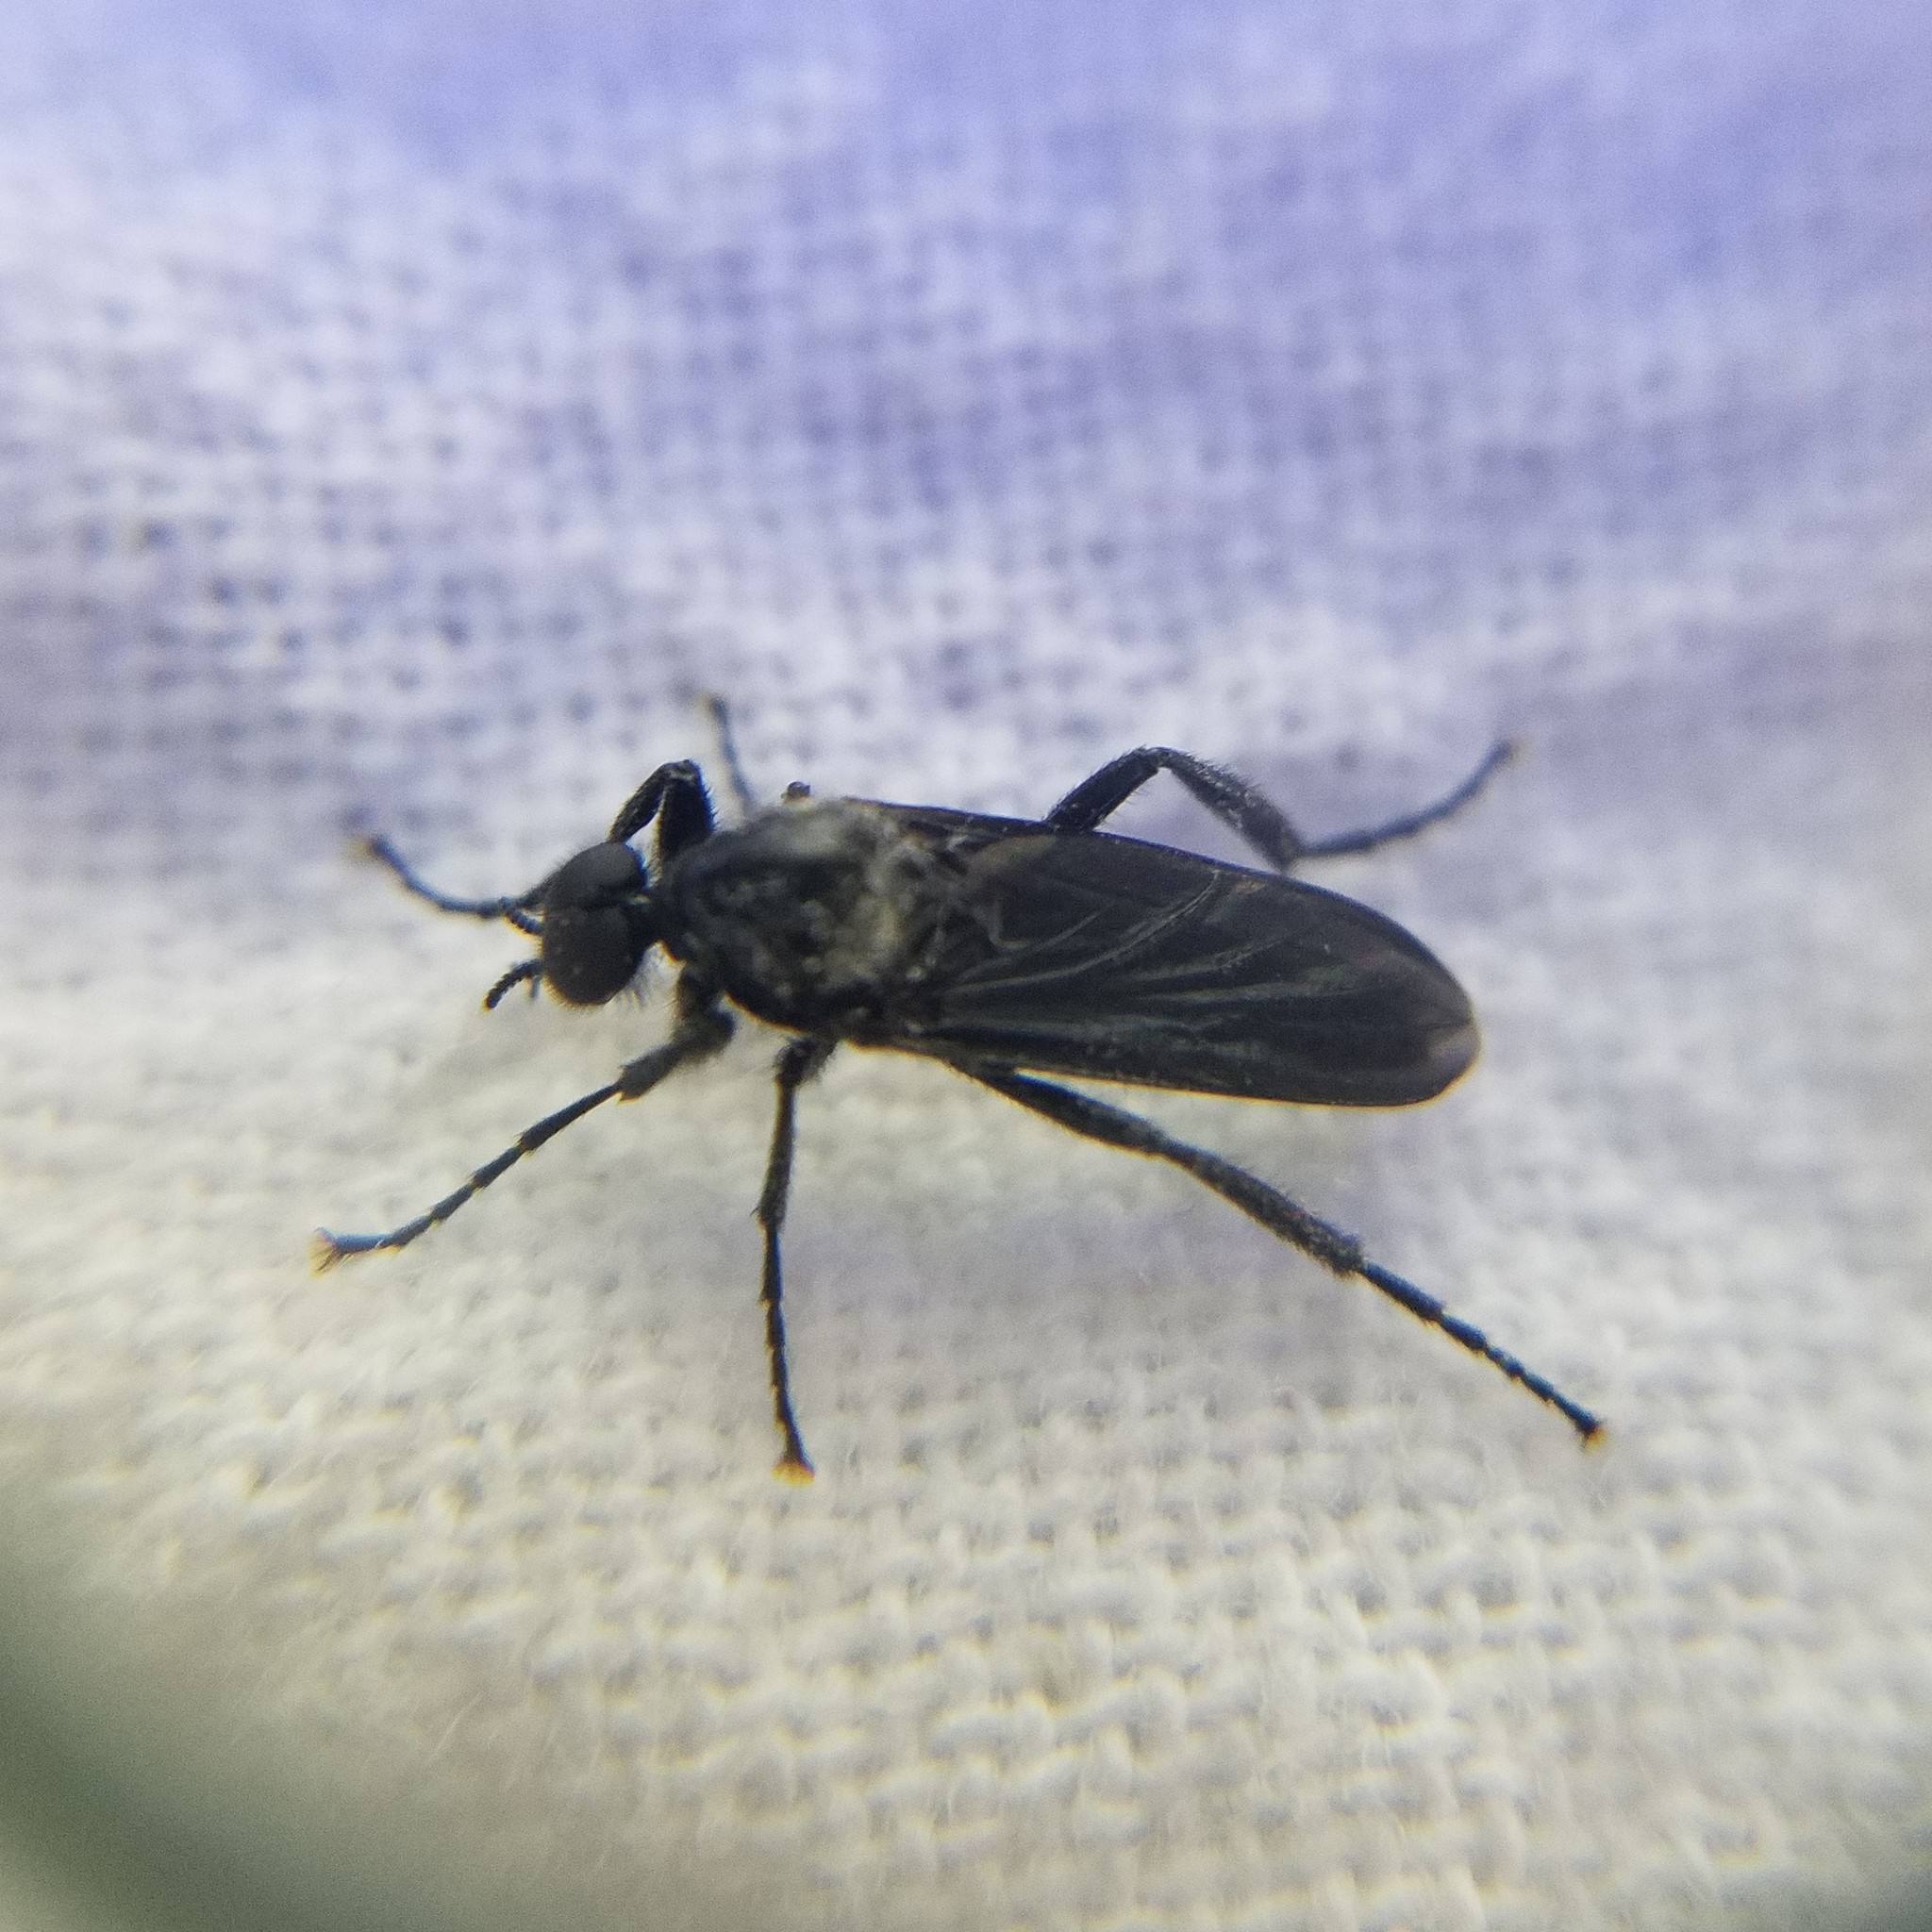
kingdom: Animalia
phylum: Arthropoda
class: Insecta
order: Diptera
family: Bibionidae
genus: Bibio
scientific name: Bibio superfluus
